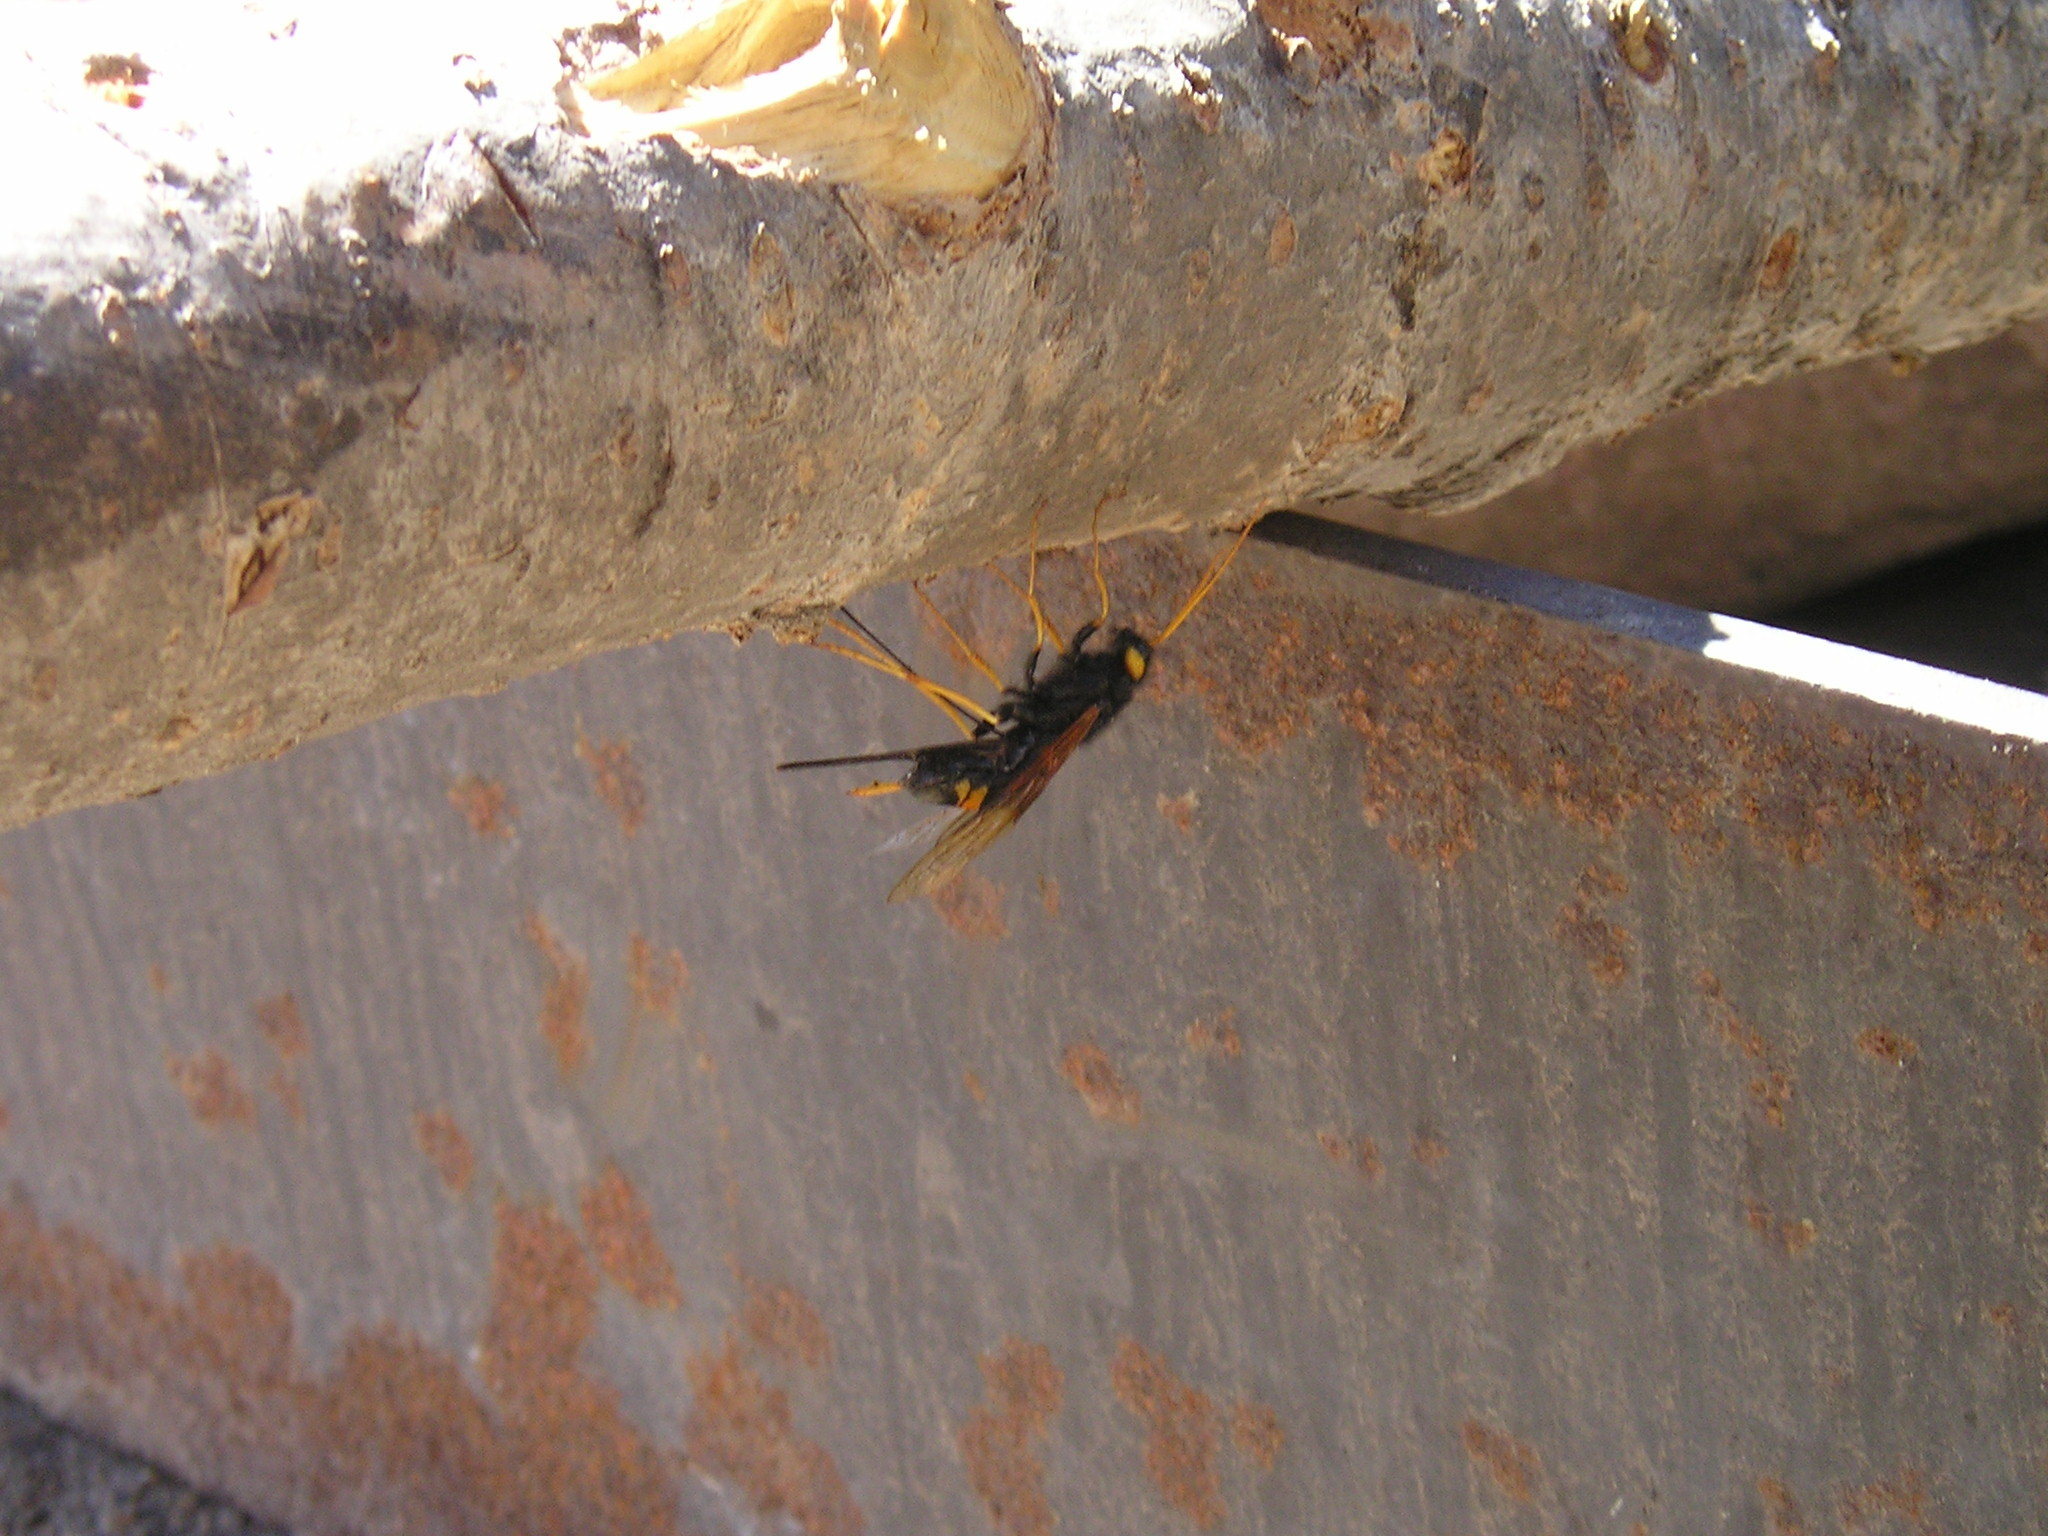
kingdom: Animalia
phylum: Arthropoda
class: Insecta
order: Hymenoptera
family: Siricidae
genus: Urocerus
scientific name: Urocerus flavicornis
